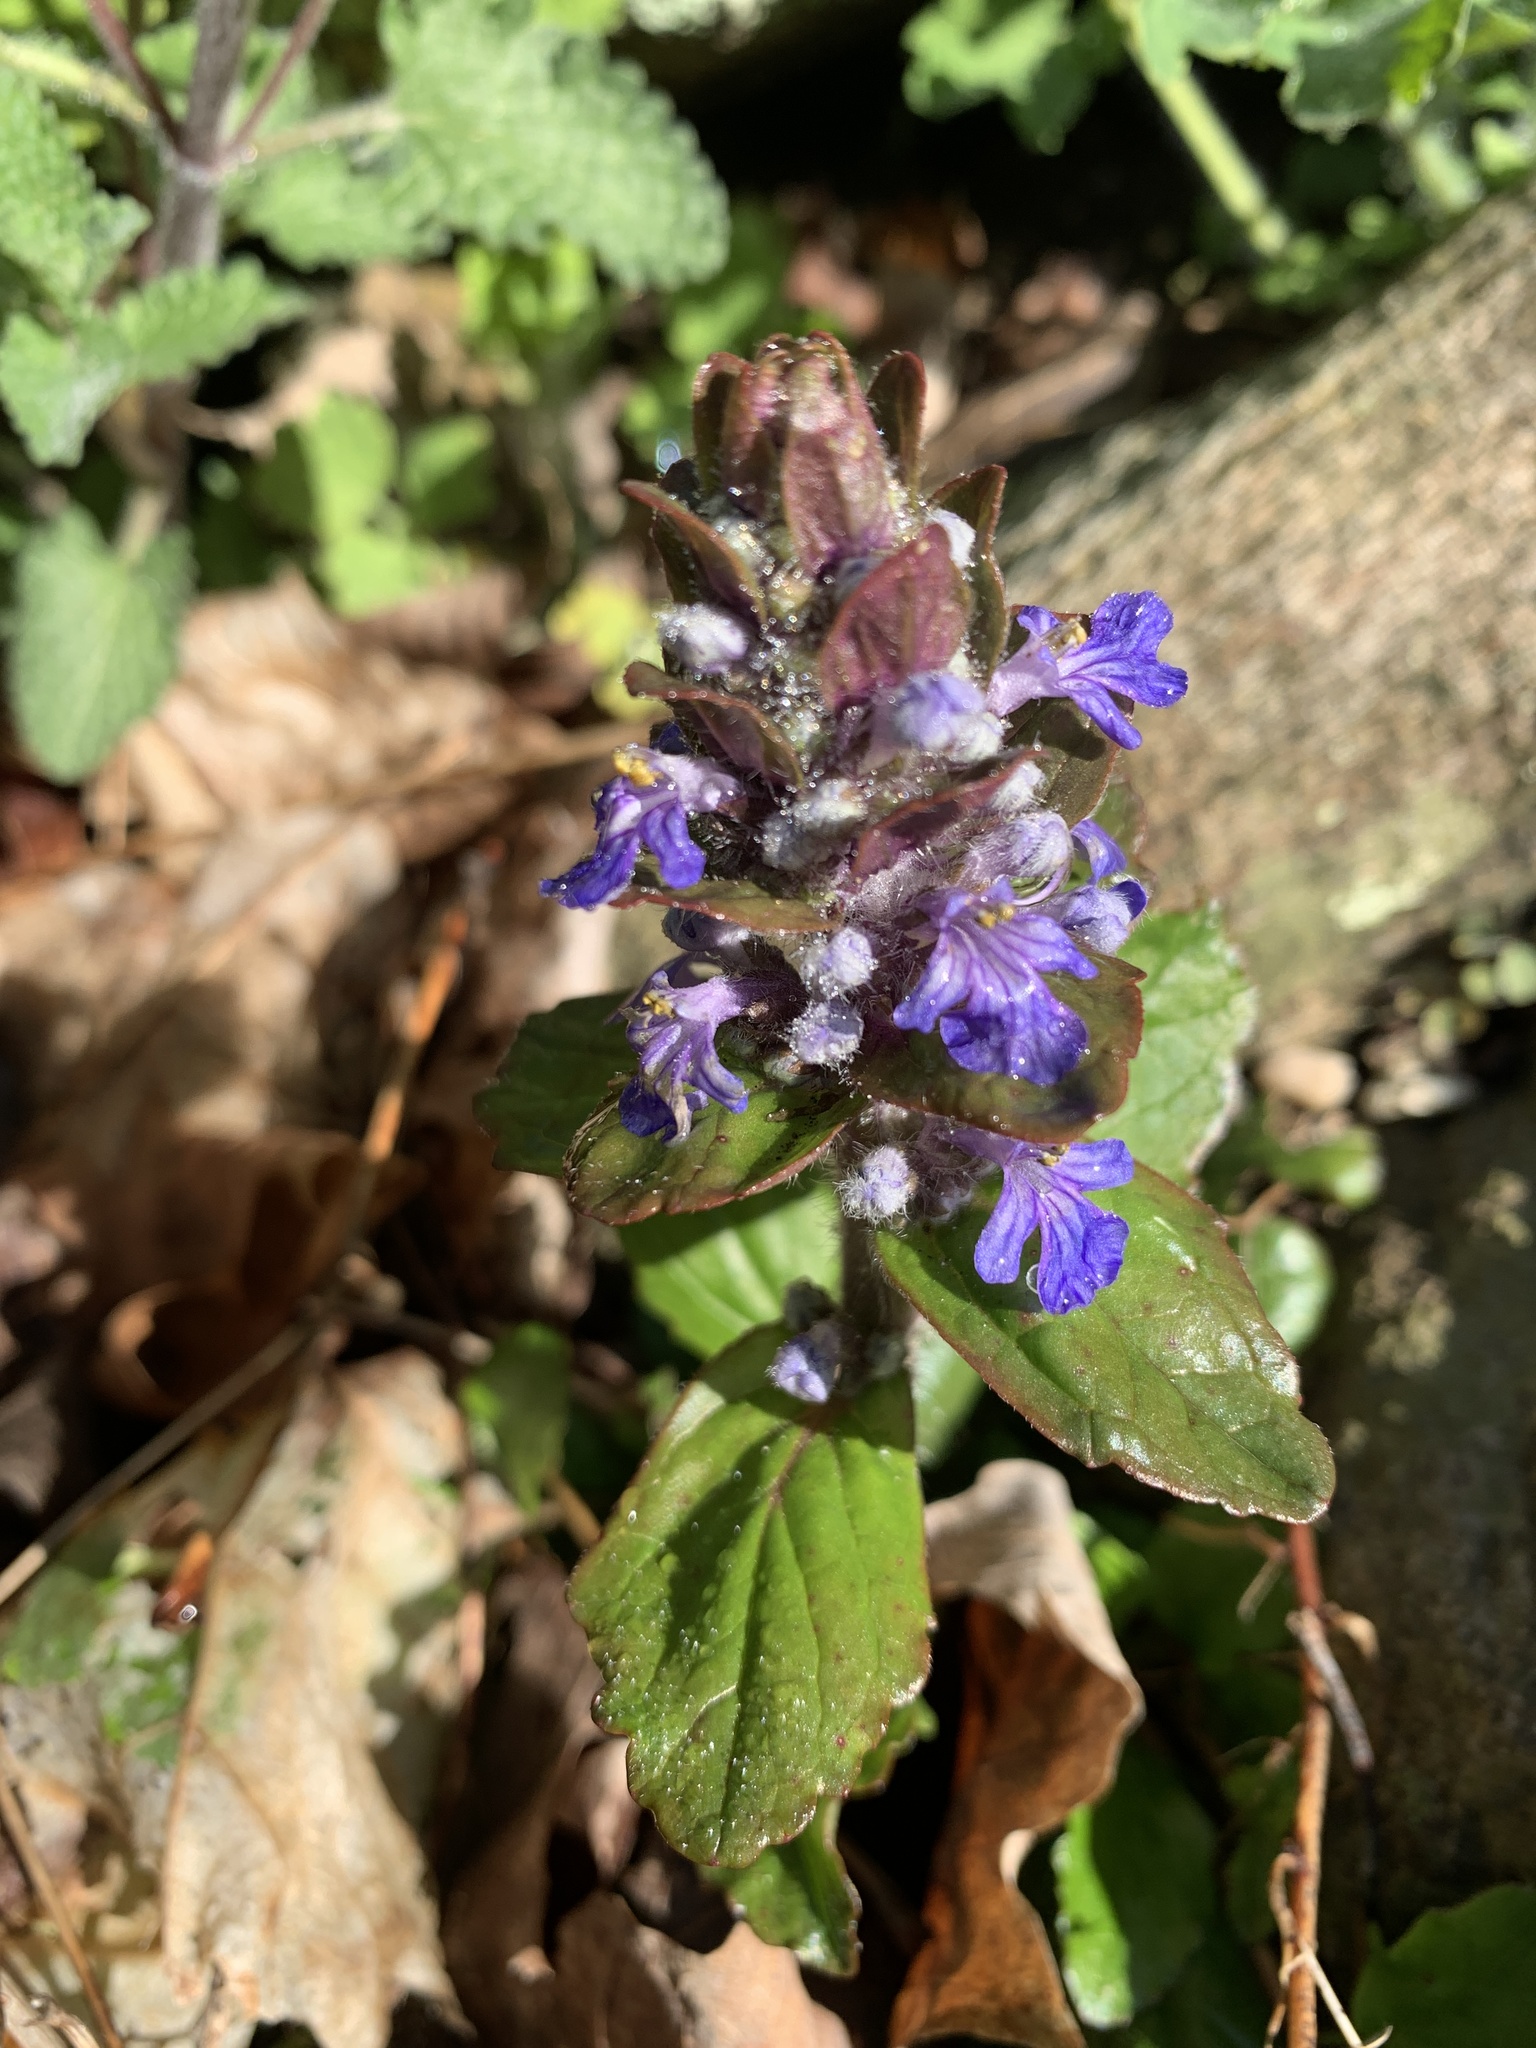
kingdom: Plantae
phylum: Tracheophyta
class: Magnoliopsida
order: Lamiales
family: Lamiaceae
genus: Ajuga
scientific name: Ajuga reptans
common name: Bugle
